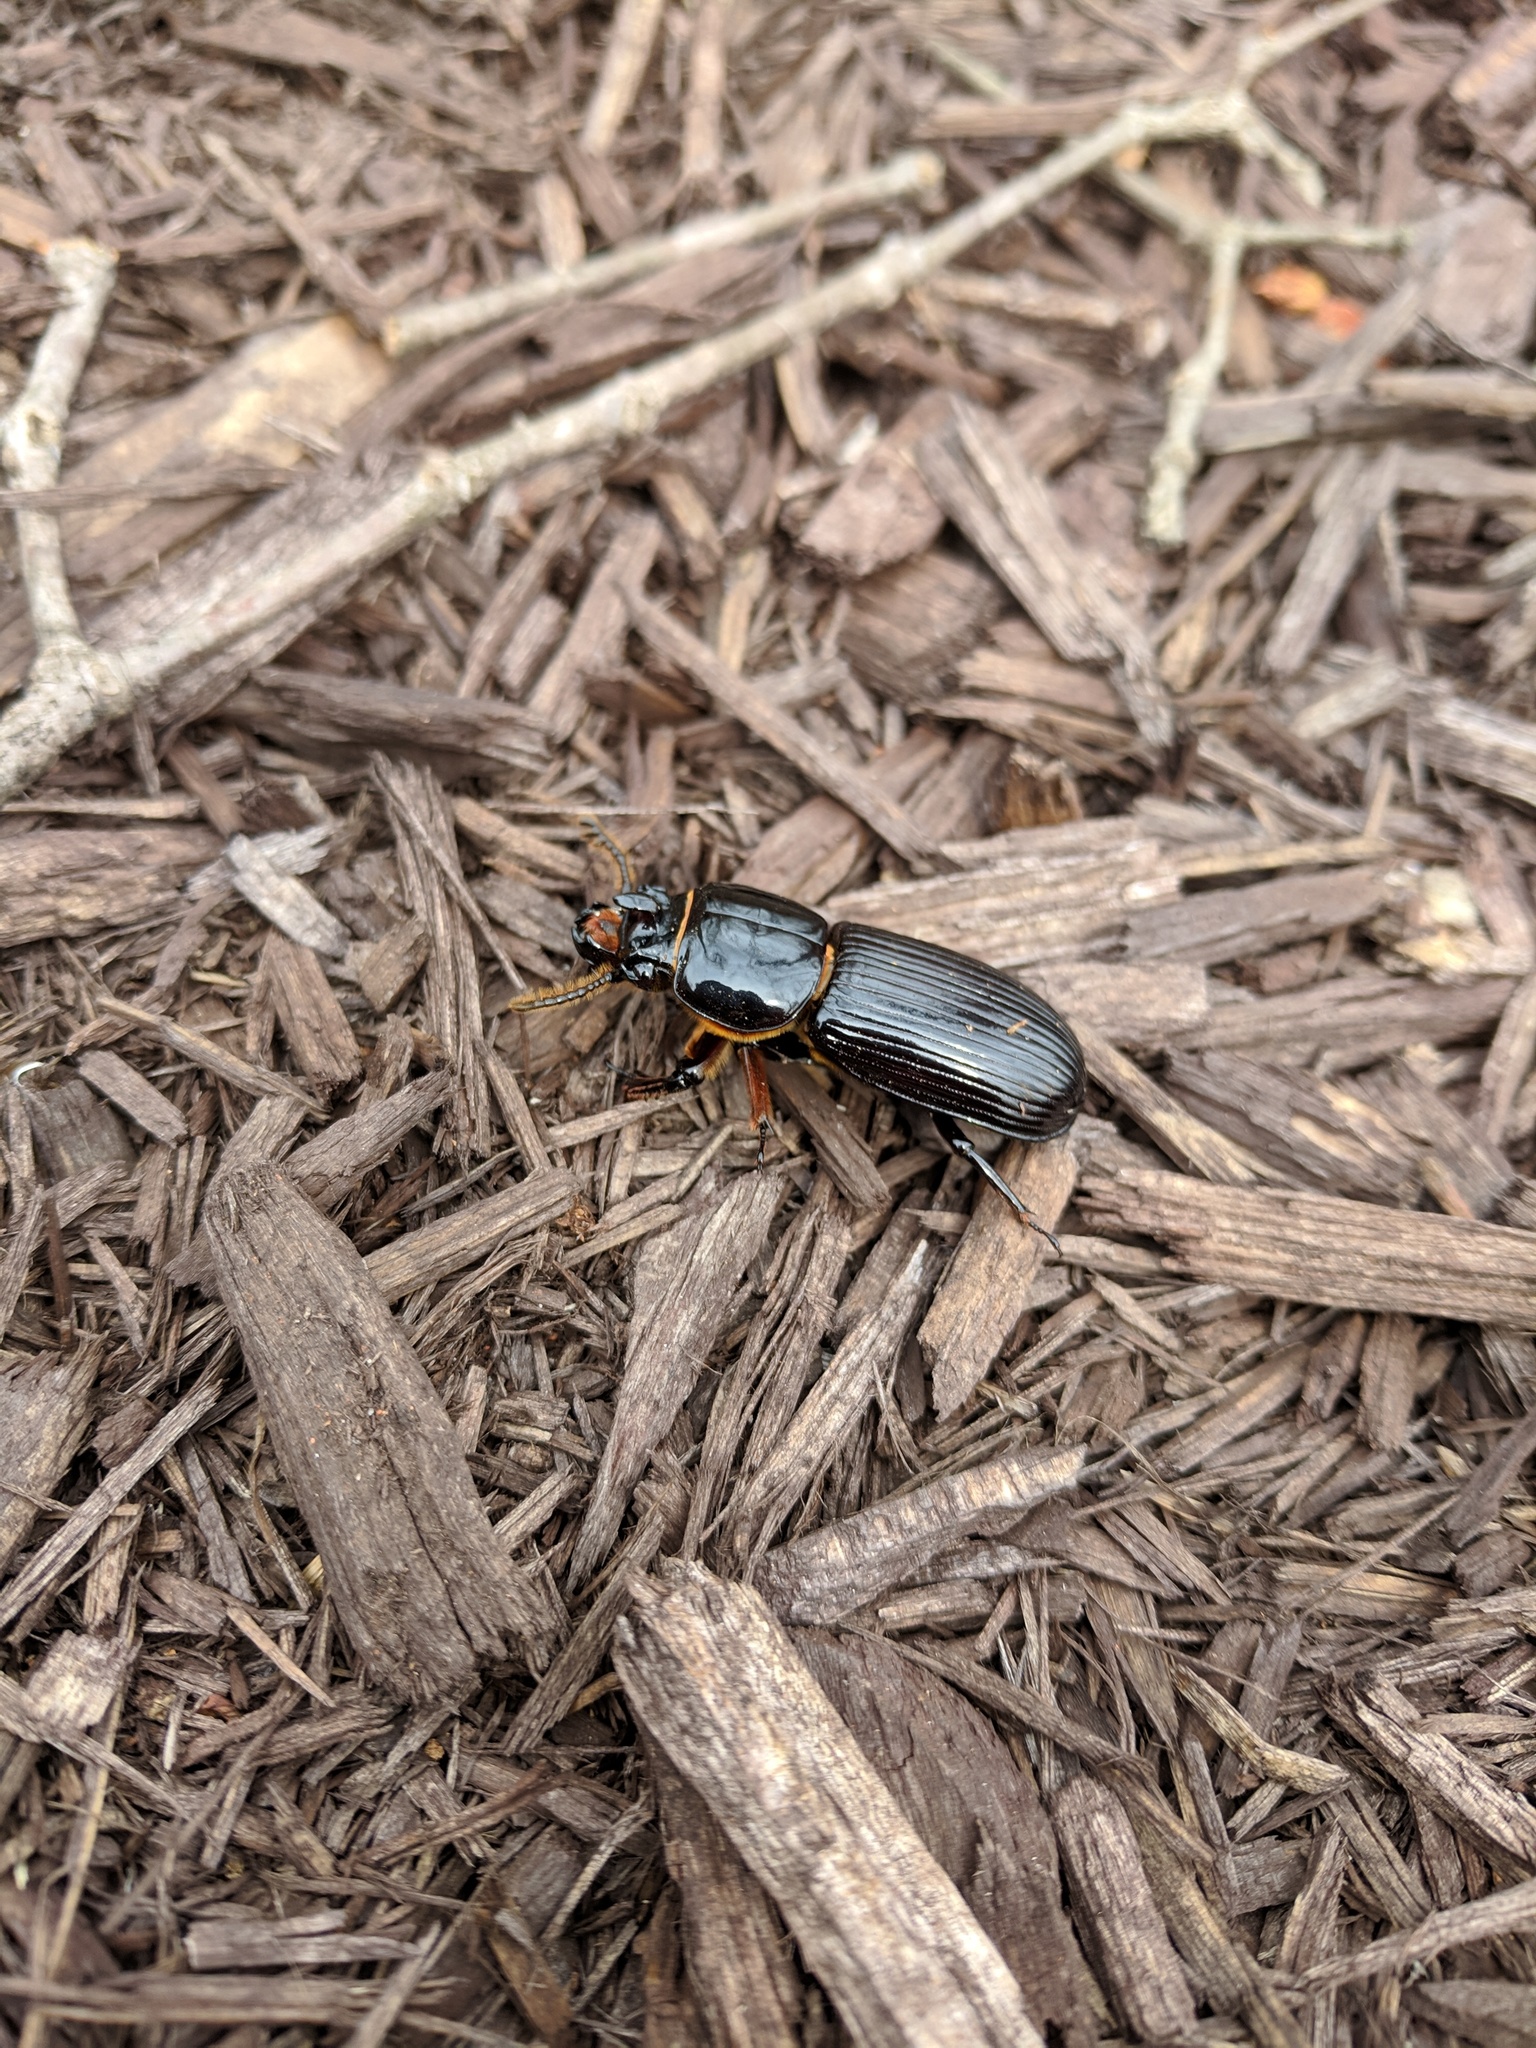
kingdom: Animalia
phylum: Arthropoda
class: Insecta
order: Coleoptera
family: Passalidae
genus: Odontotaenius
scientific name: Odontotaenius disjunctus
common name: Patent leather beetle
